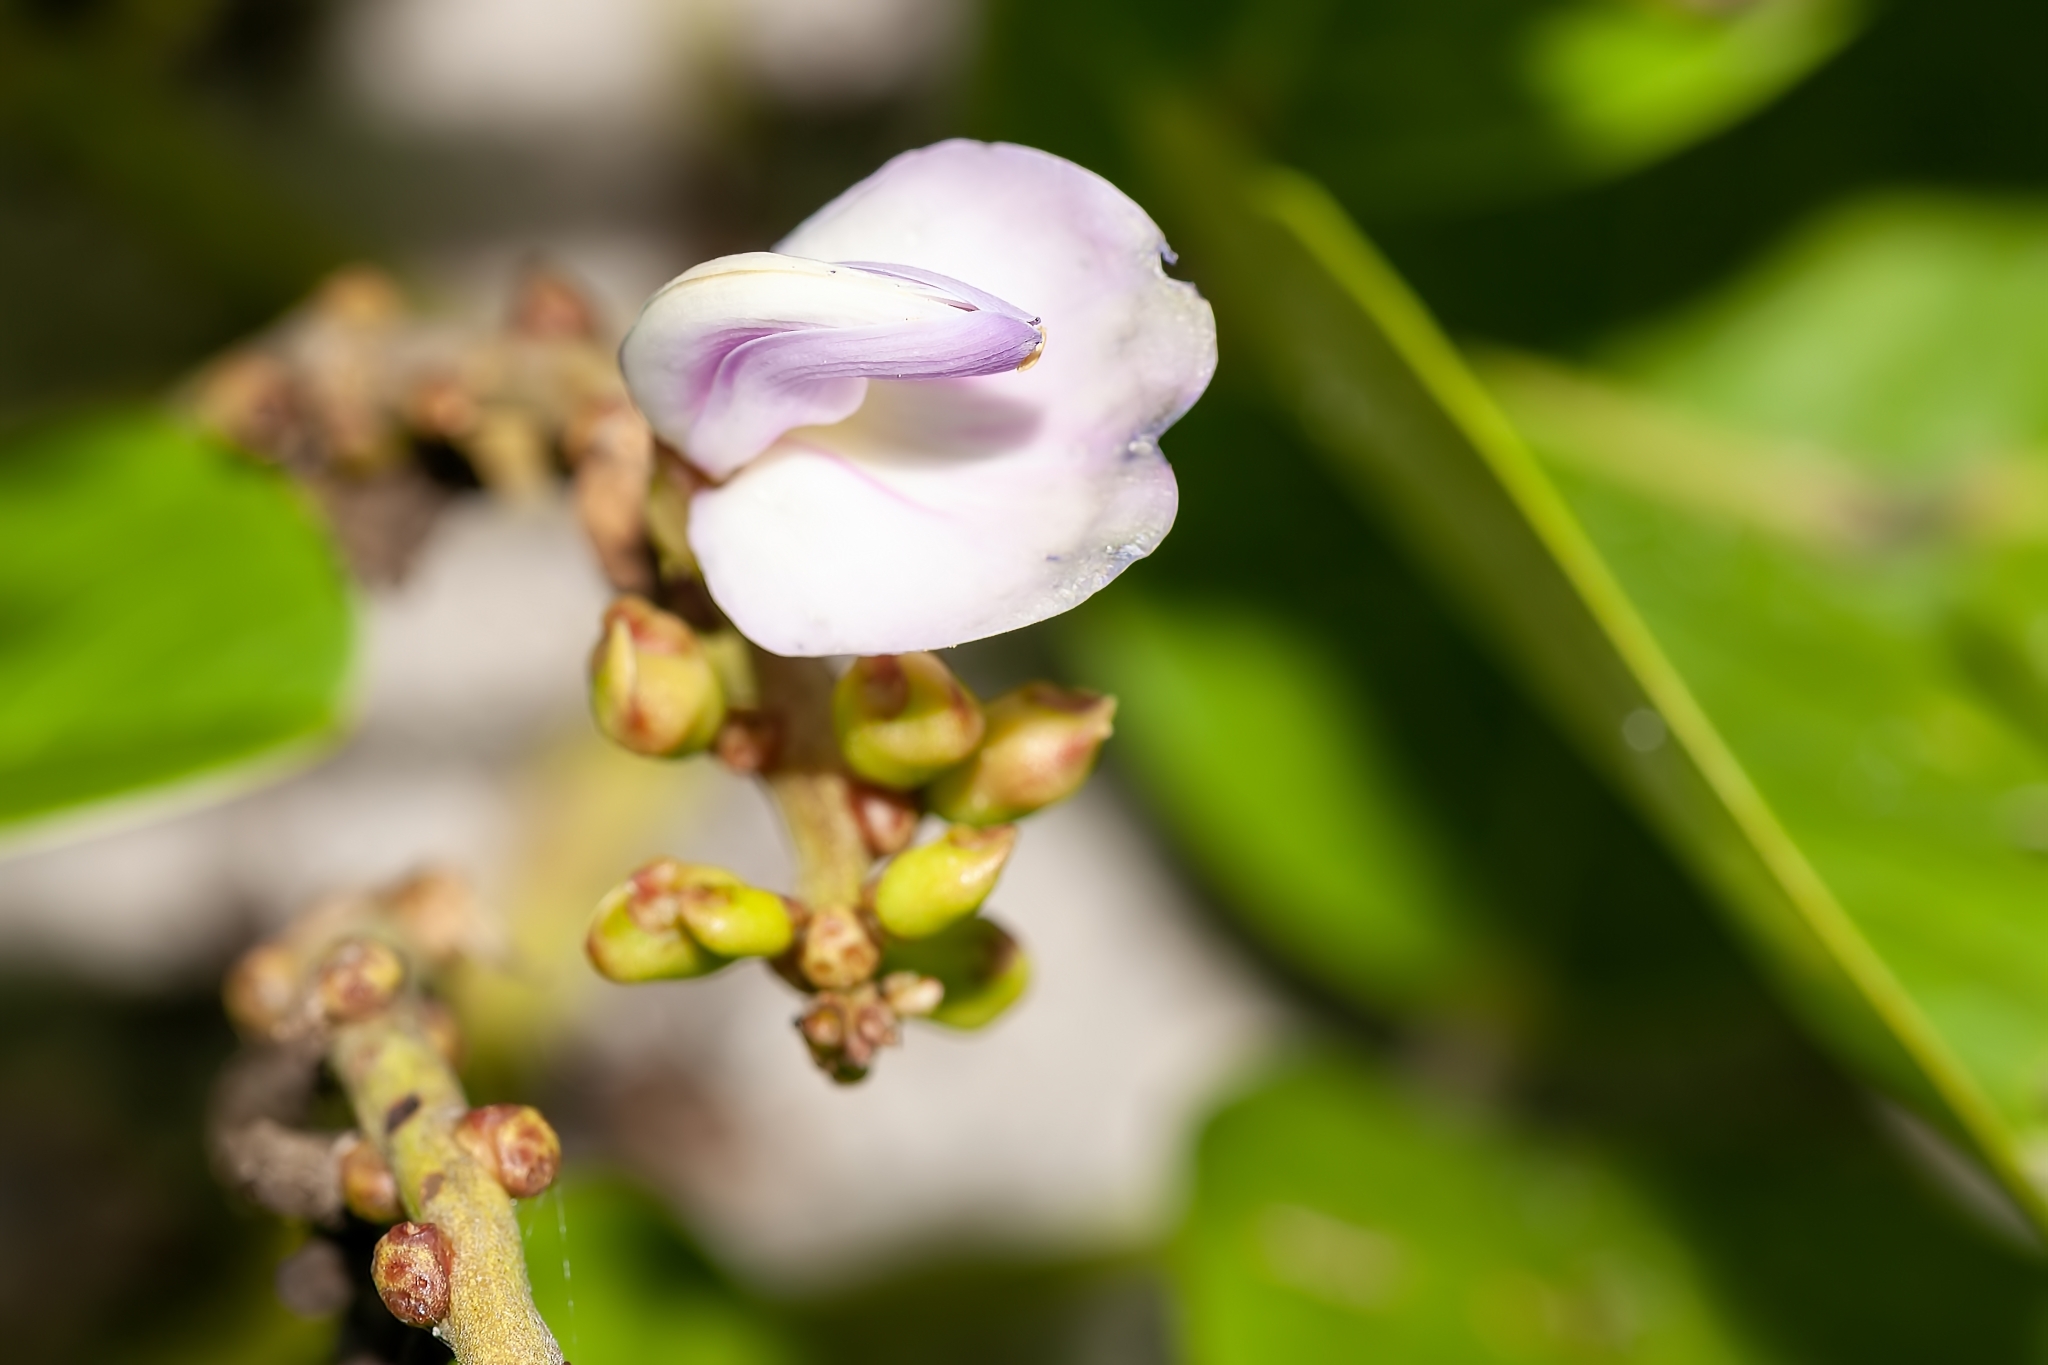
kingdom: Plantae
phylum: Tracheophyta
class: Magnoliopsida
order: Fabales
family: Fabaceae
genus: Canavalia
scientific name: Canavalia rosea
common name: Beach-bean
